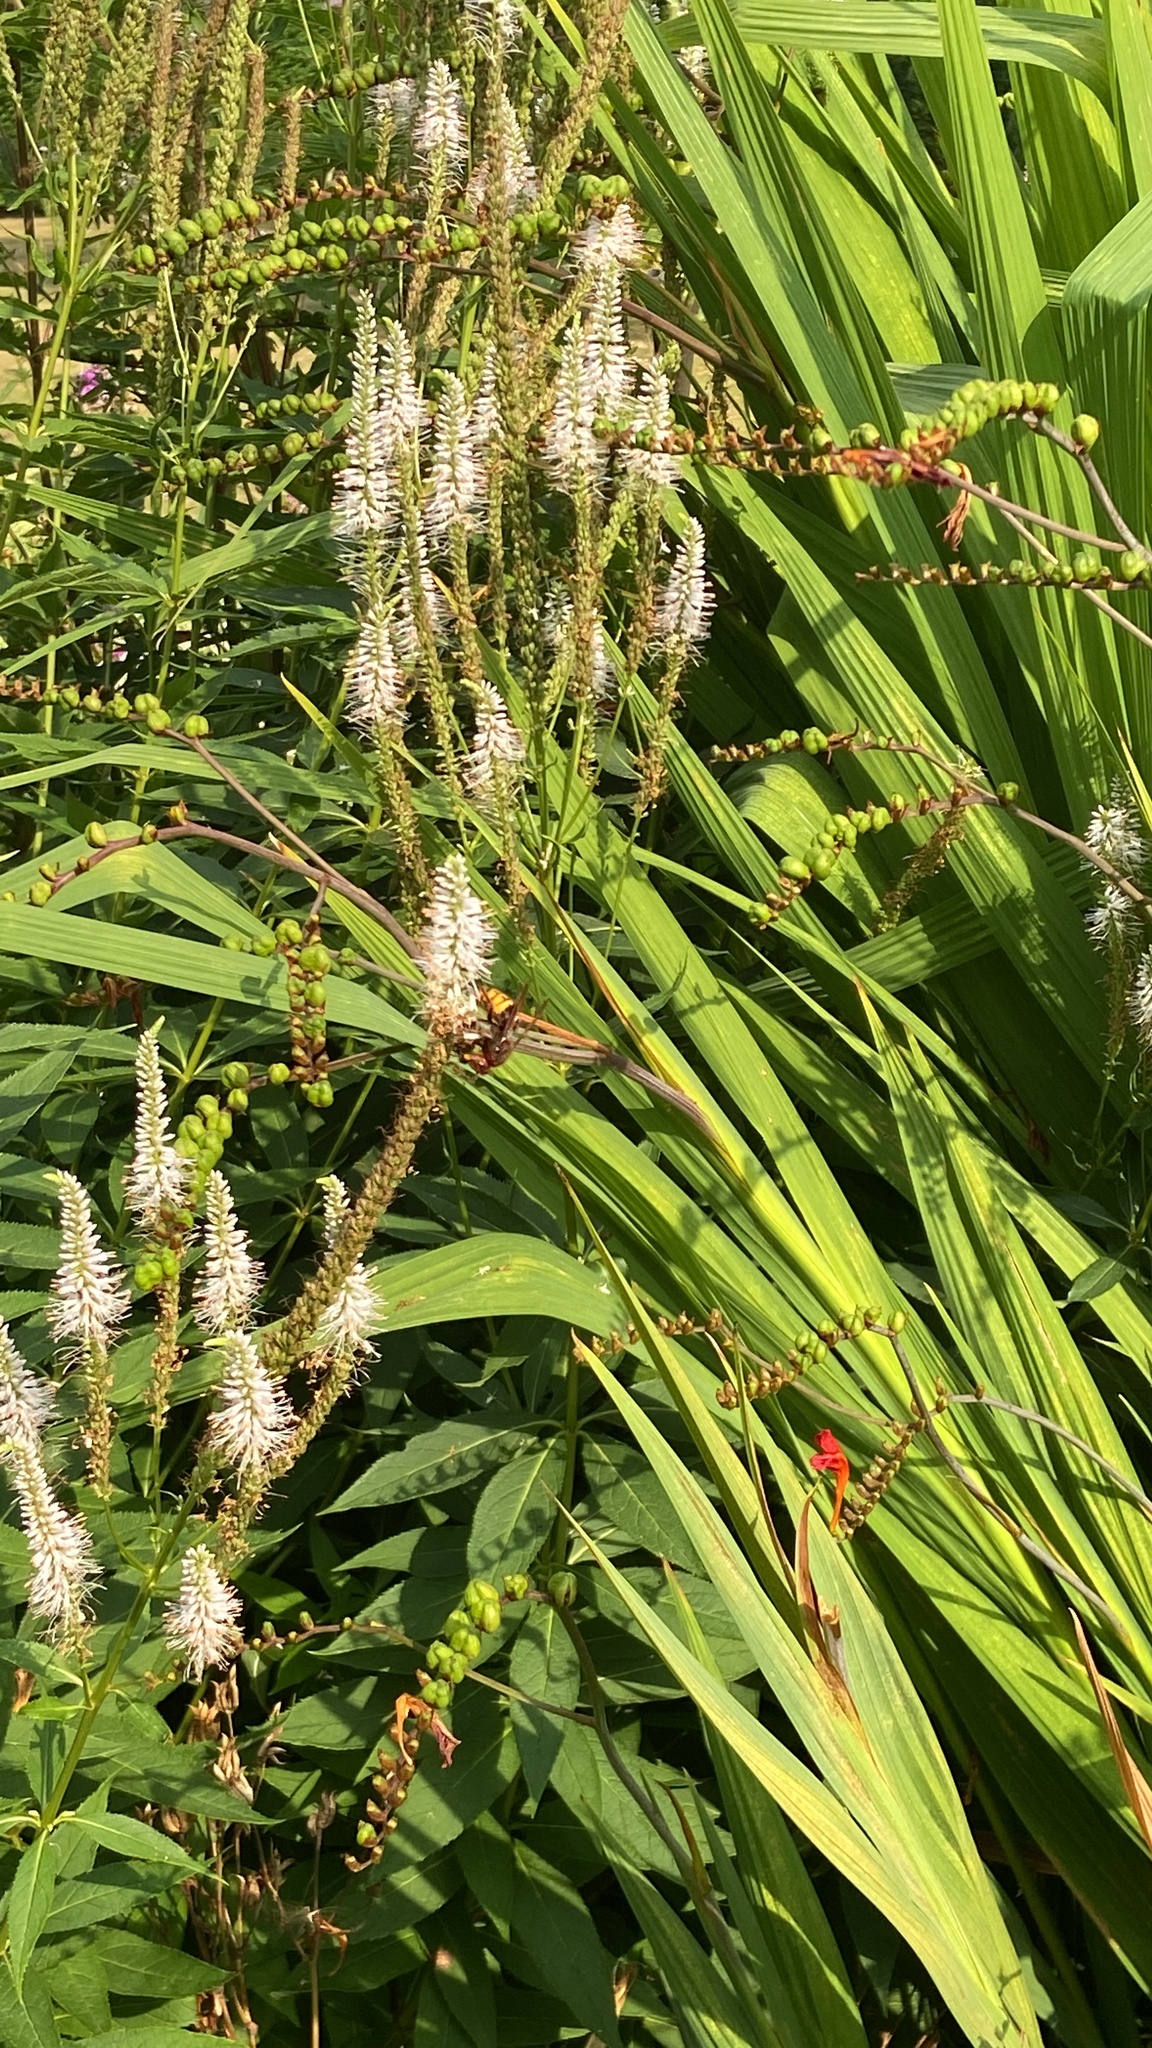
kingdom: Animalia
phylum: Arthropoda
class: Insecta
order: Hymenoptera
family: Vespidae
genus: Vespa
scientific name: Vespa crabro
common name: Hornet
